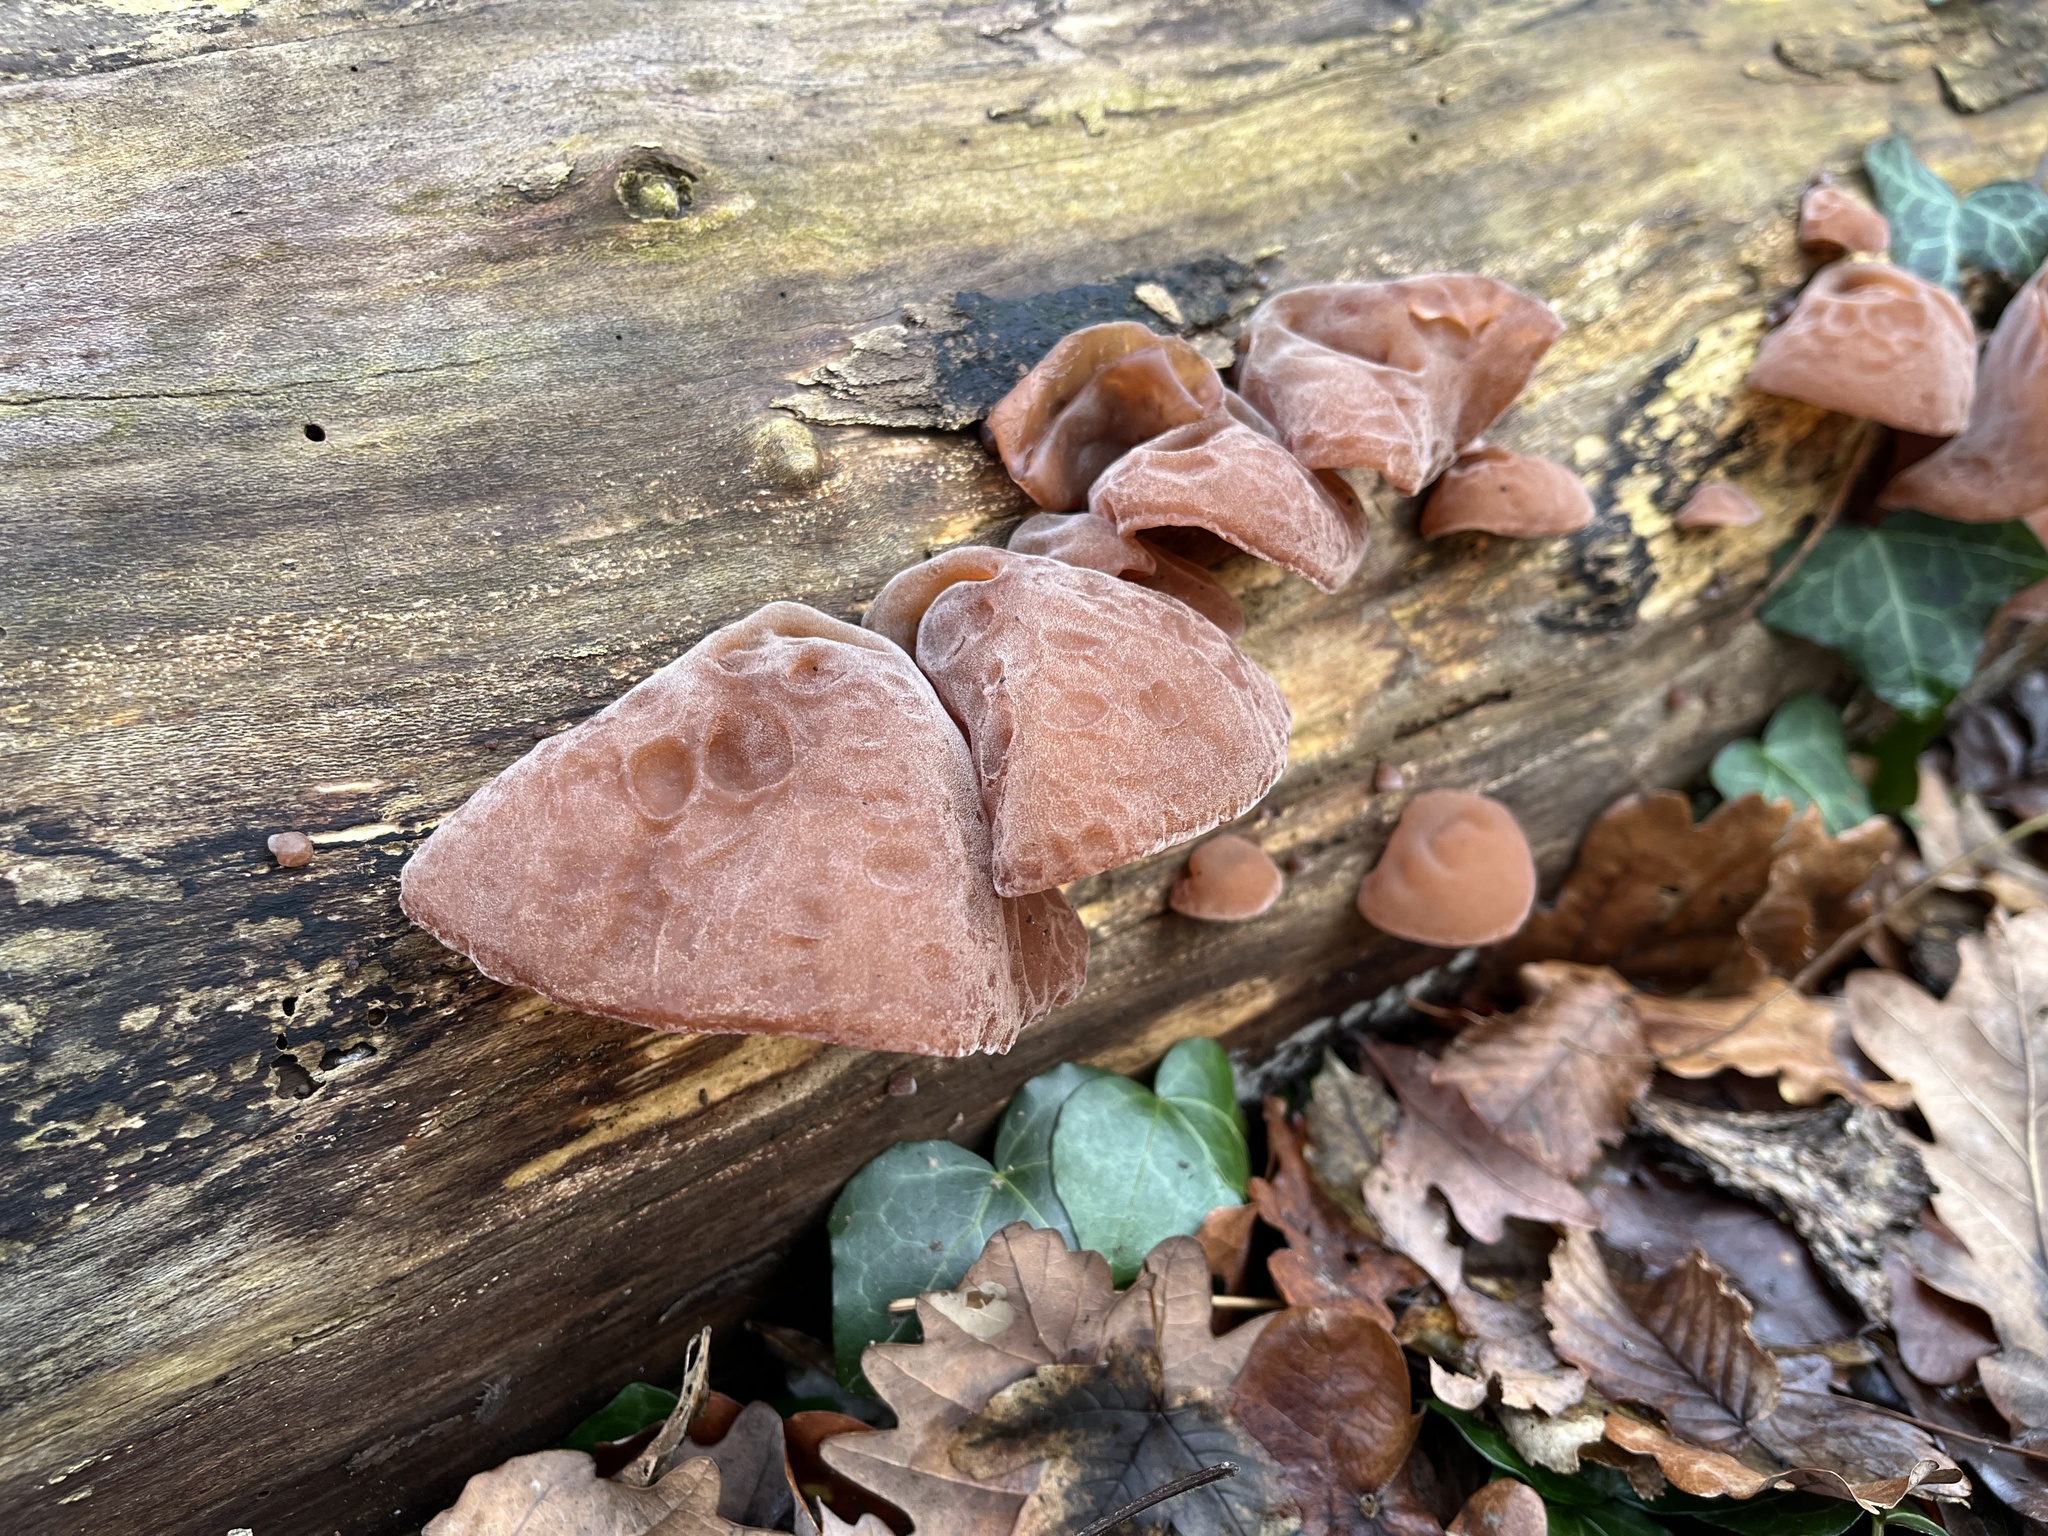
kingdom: Fungi
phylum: Basidiomycota
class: Agaricomycetes
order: Auriculariales
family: Auriculariaceae
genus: Auricularia
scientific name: Auricularia auricula-judae
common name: Jelly ear
